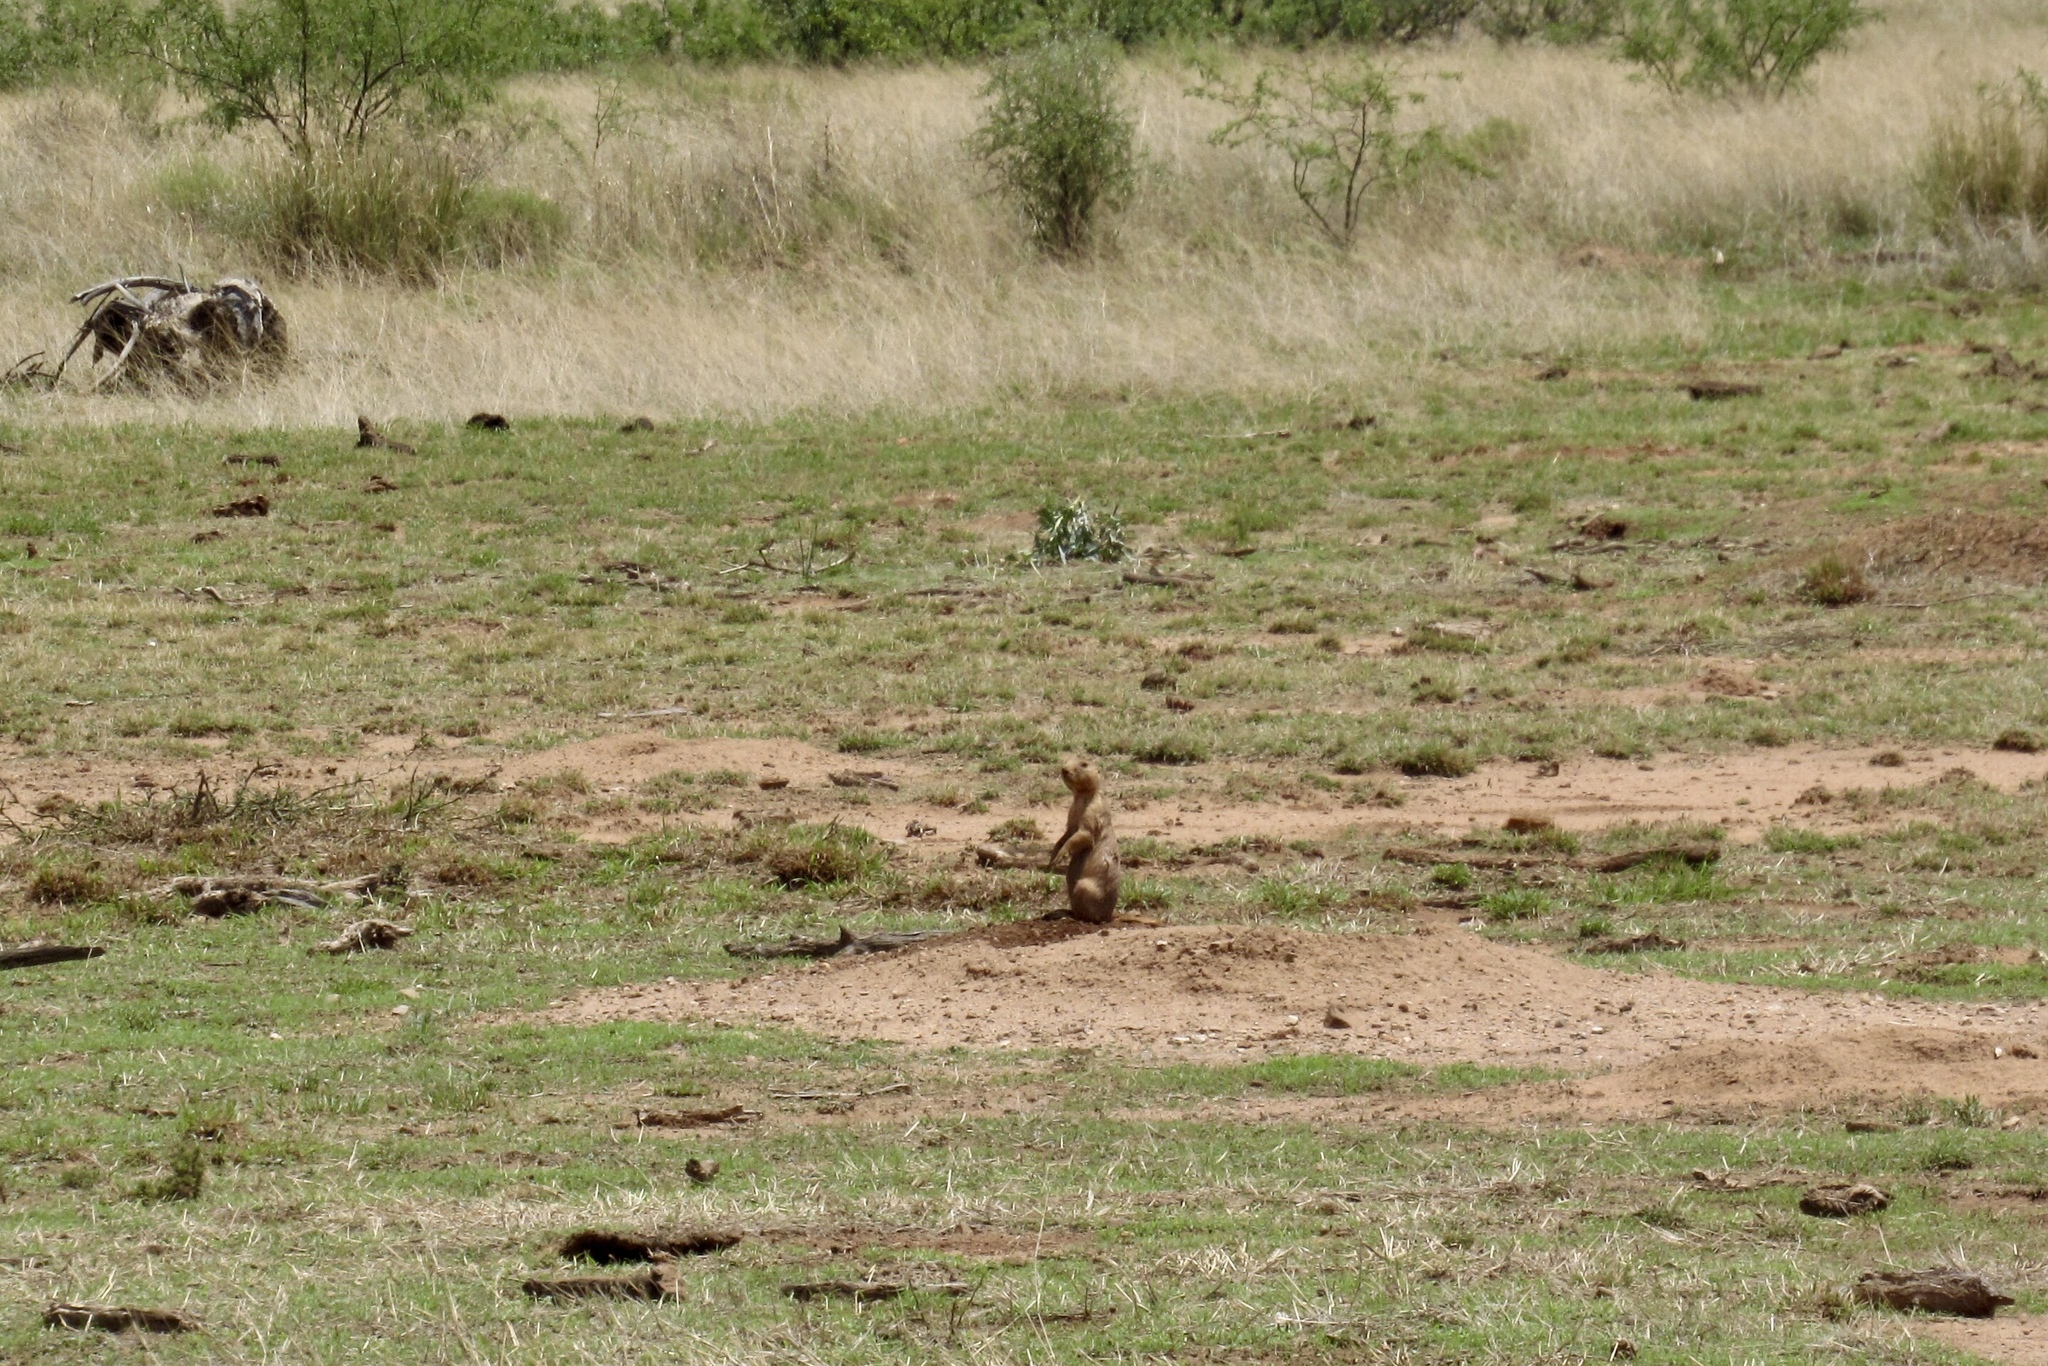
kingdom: Animalia
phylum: Chordata
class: Mammalia
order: Rodentia
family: Sciuridae
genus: Cynomys
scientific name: Cynomys ludovicianus
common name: Black-tailed prairie dog
